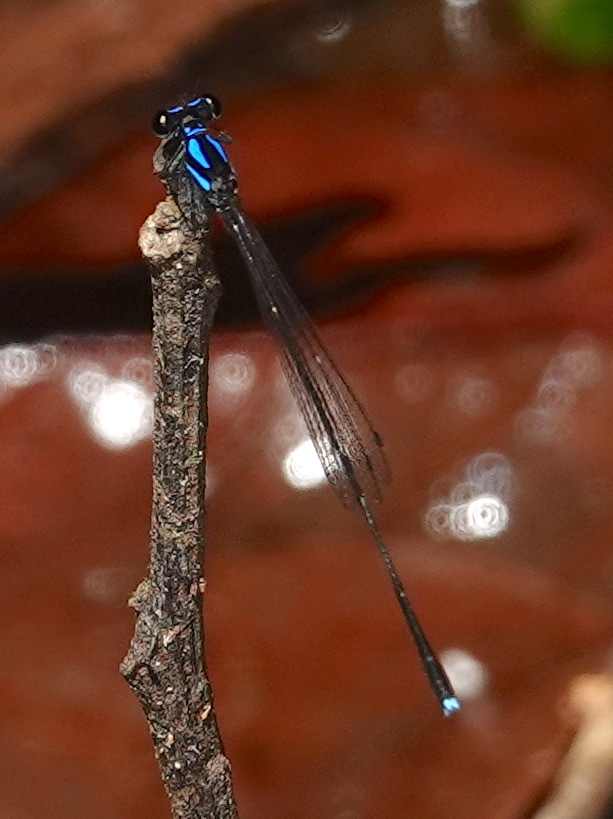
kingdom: Animalia
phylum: Arthropoda
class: Insecta
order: Odonata
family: Platycnemididae
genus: Prodasineura
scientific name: Prodasineura collaris
